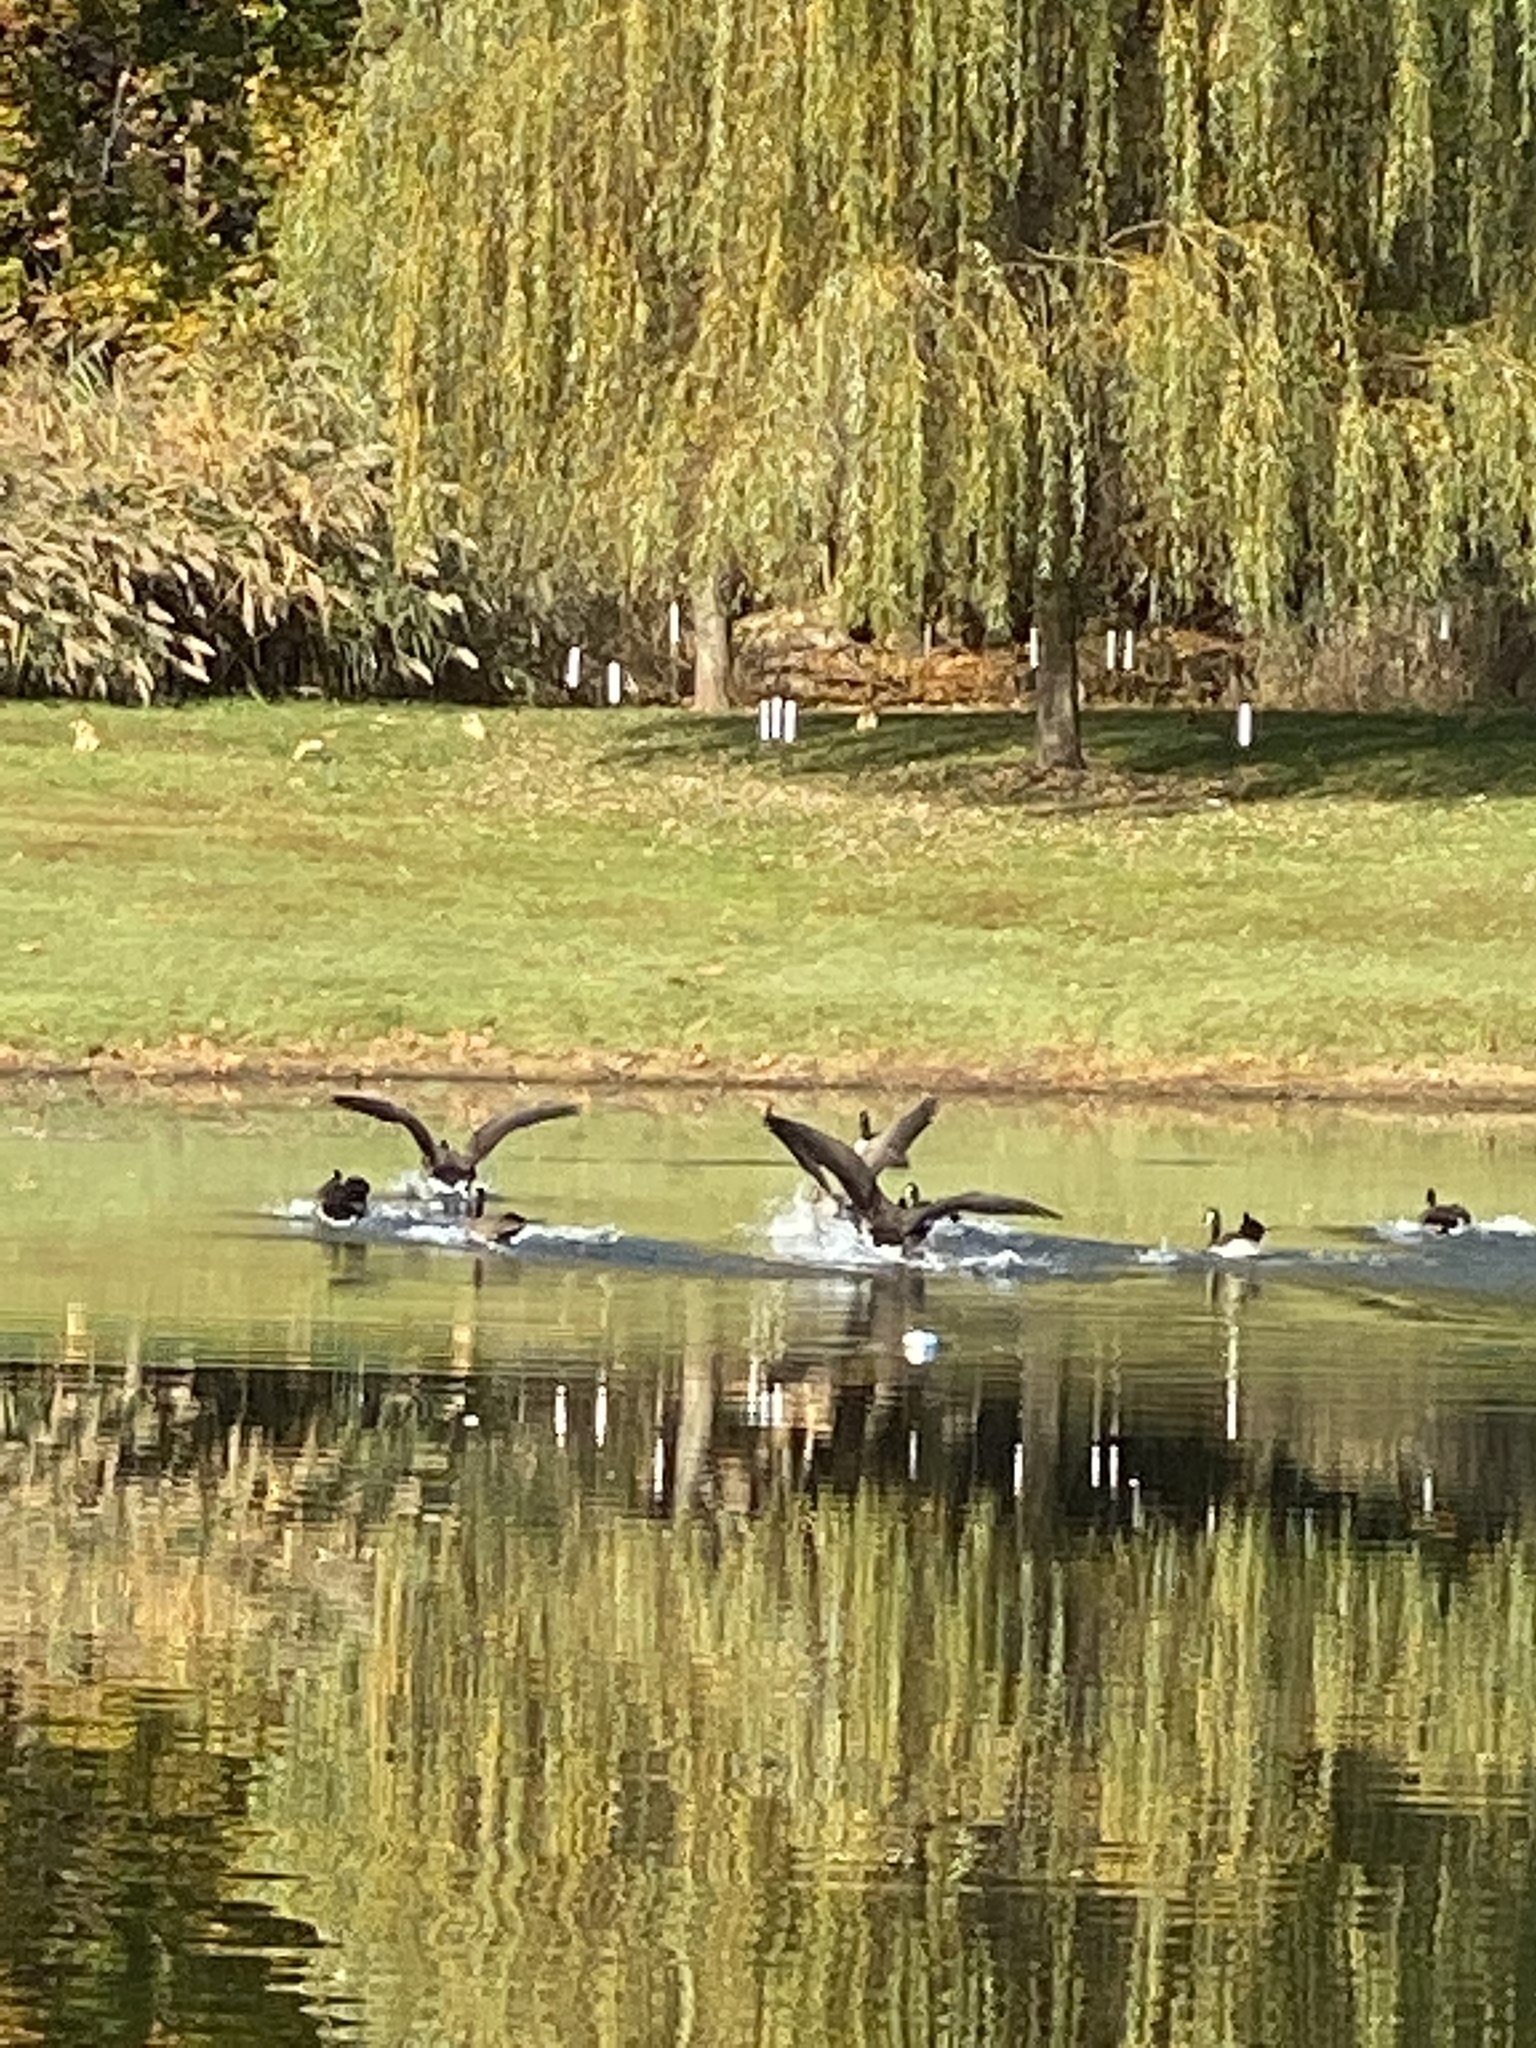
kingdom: Animalia
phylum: Chordata
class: Aves
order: Anseriformes
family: Anatidae
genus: Branta
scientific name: Branta canadensis
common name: Canada goose
